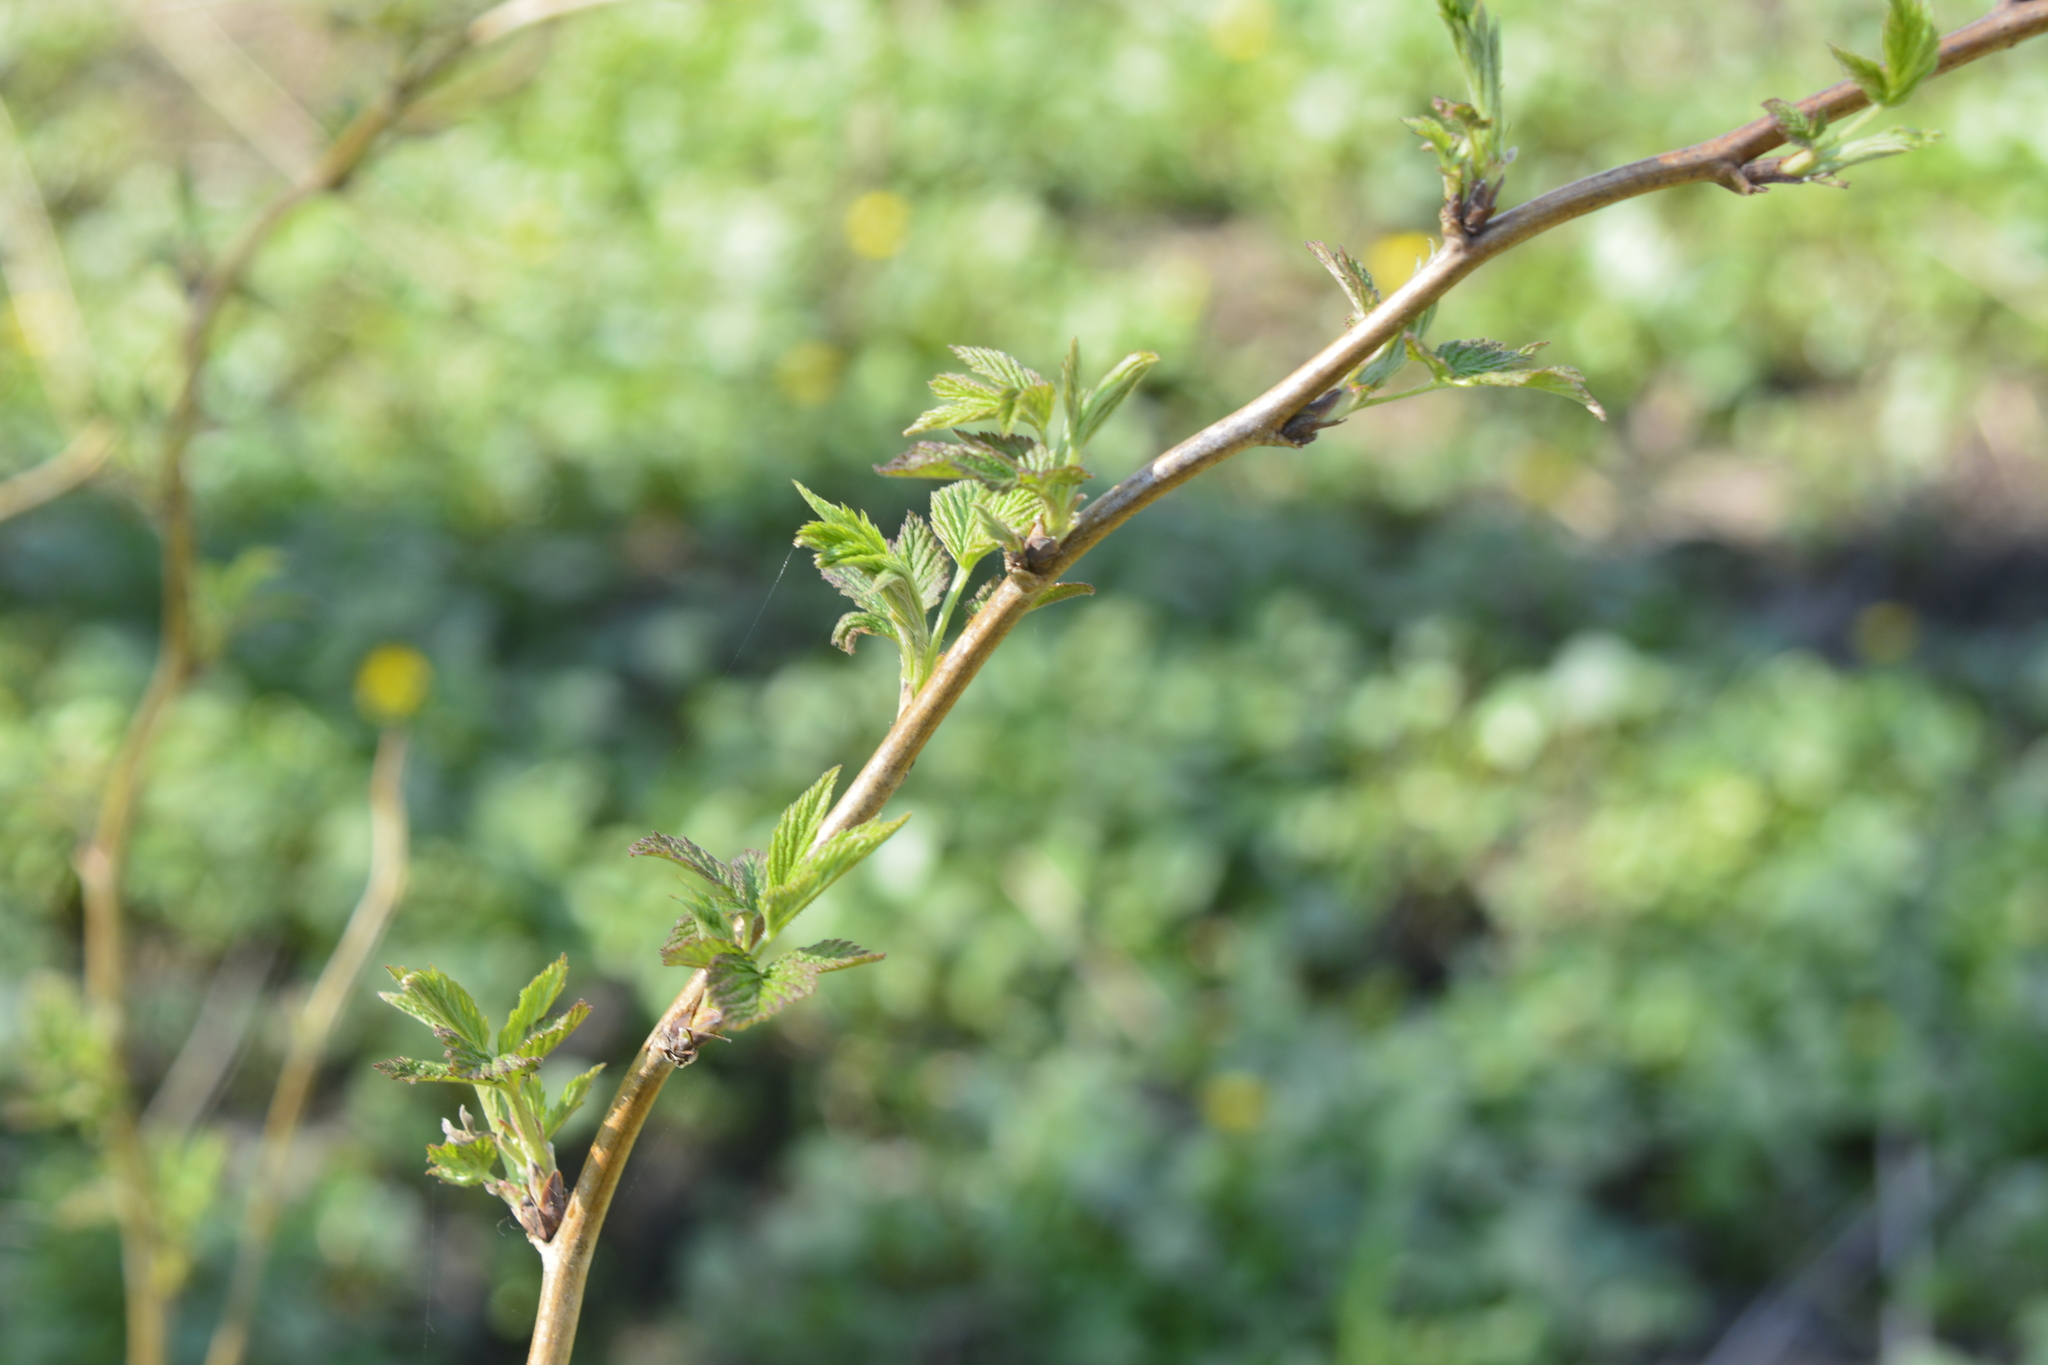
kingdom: Plantae
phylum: Tracheophyta
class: Magnoliopsida
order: Rosales
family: Rosaceae
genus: Rubus
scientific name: Rubus idaeus
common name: Raspberry
